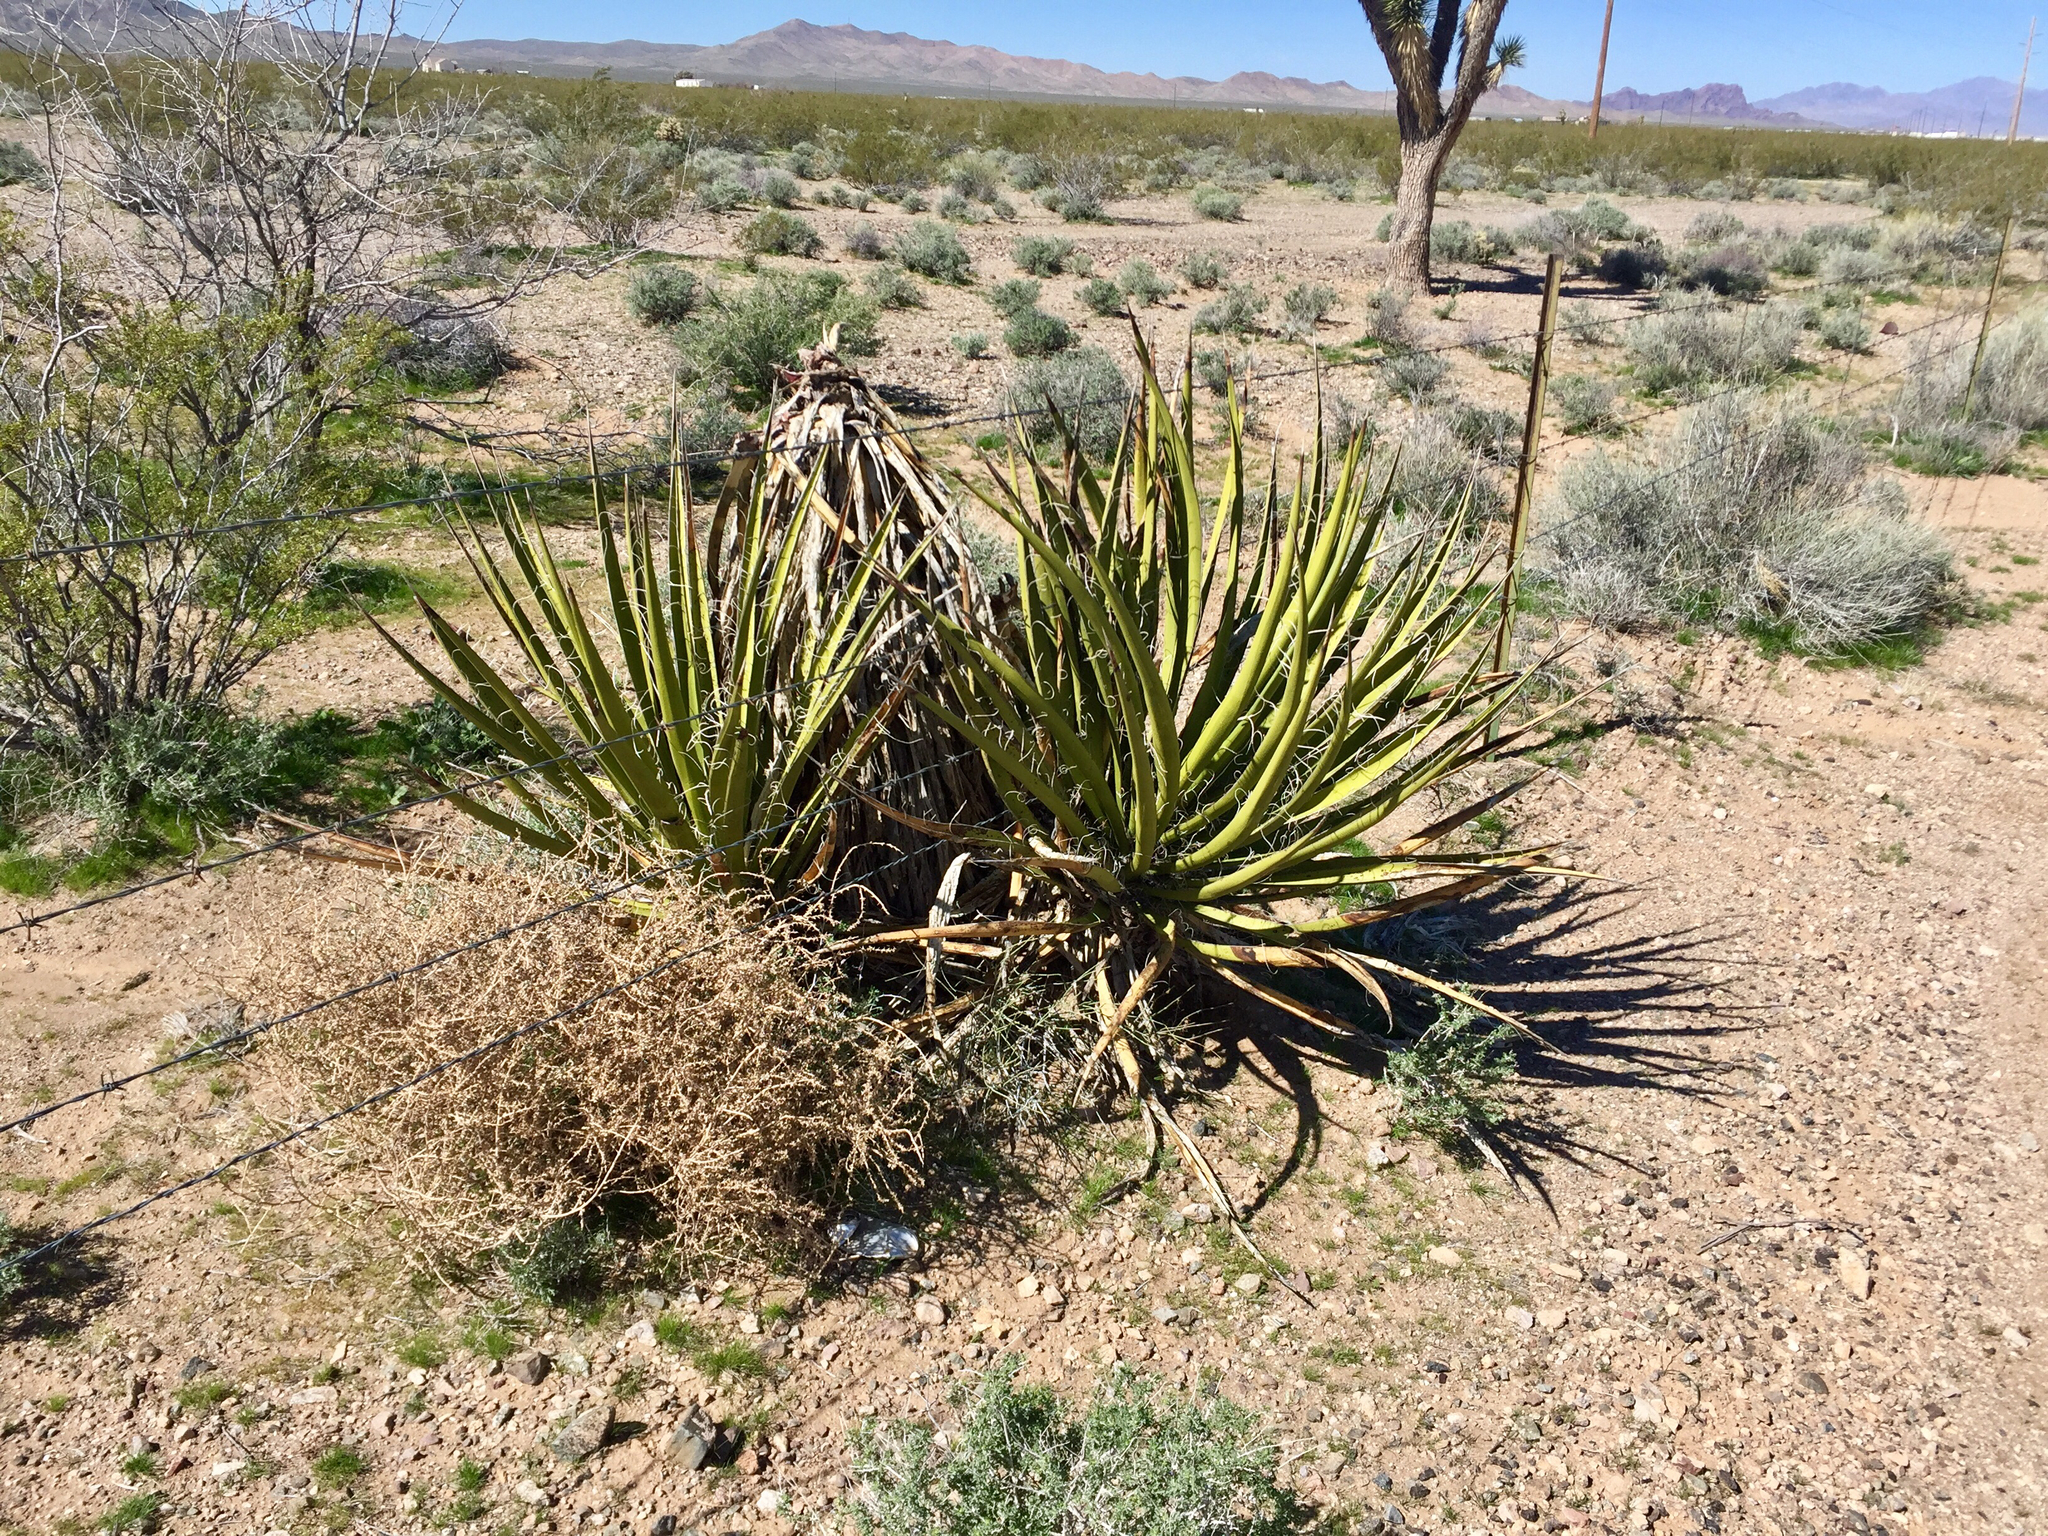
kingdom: Plantae
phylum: Tracheophyta
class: Liliopsida
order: Asparagales
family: Asparagaceae
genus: Yucca
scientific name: Yucca schidigera
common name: Mojave yucca
